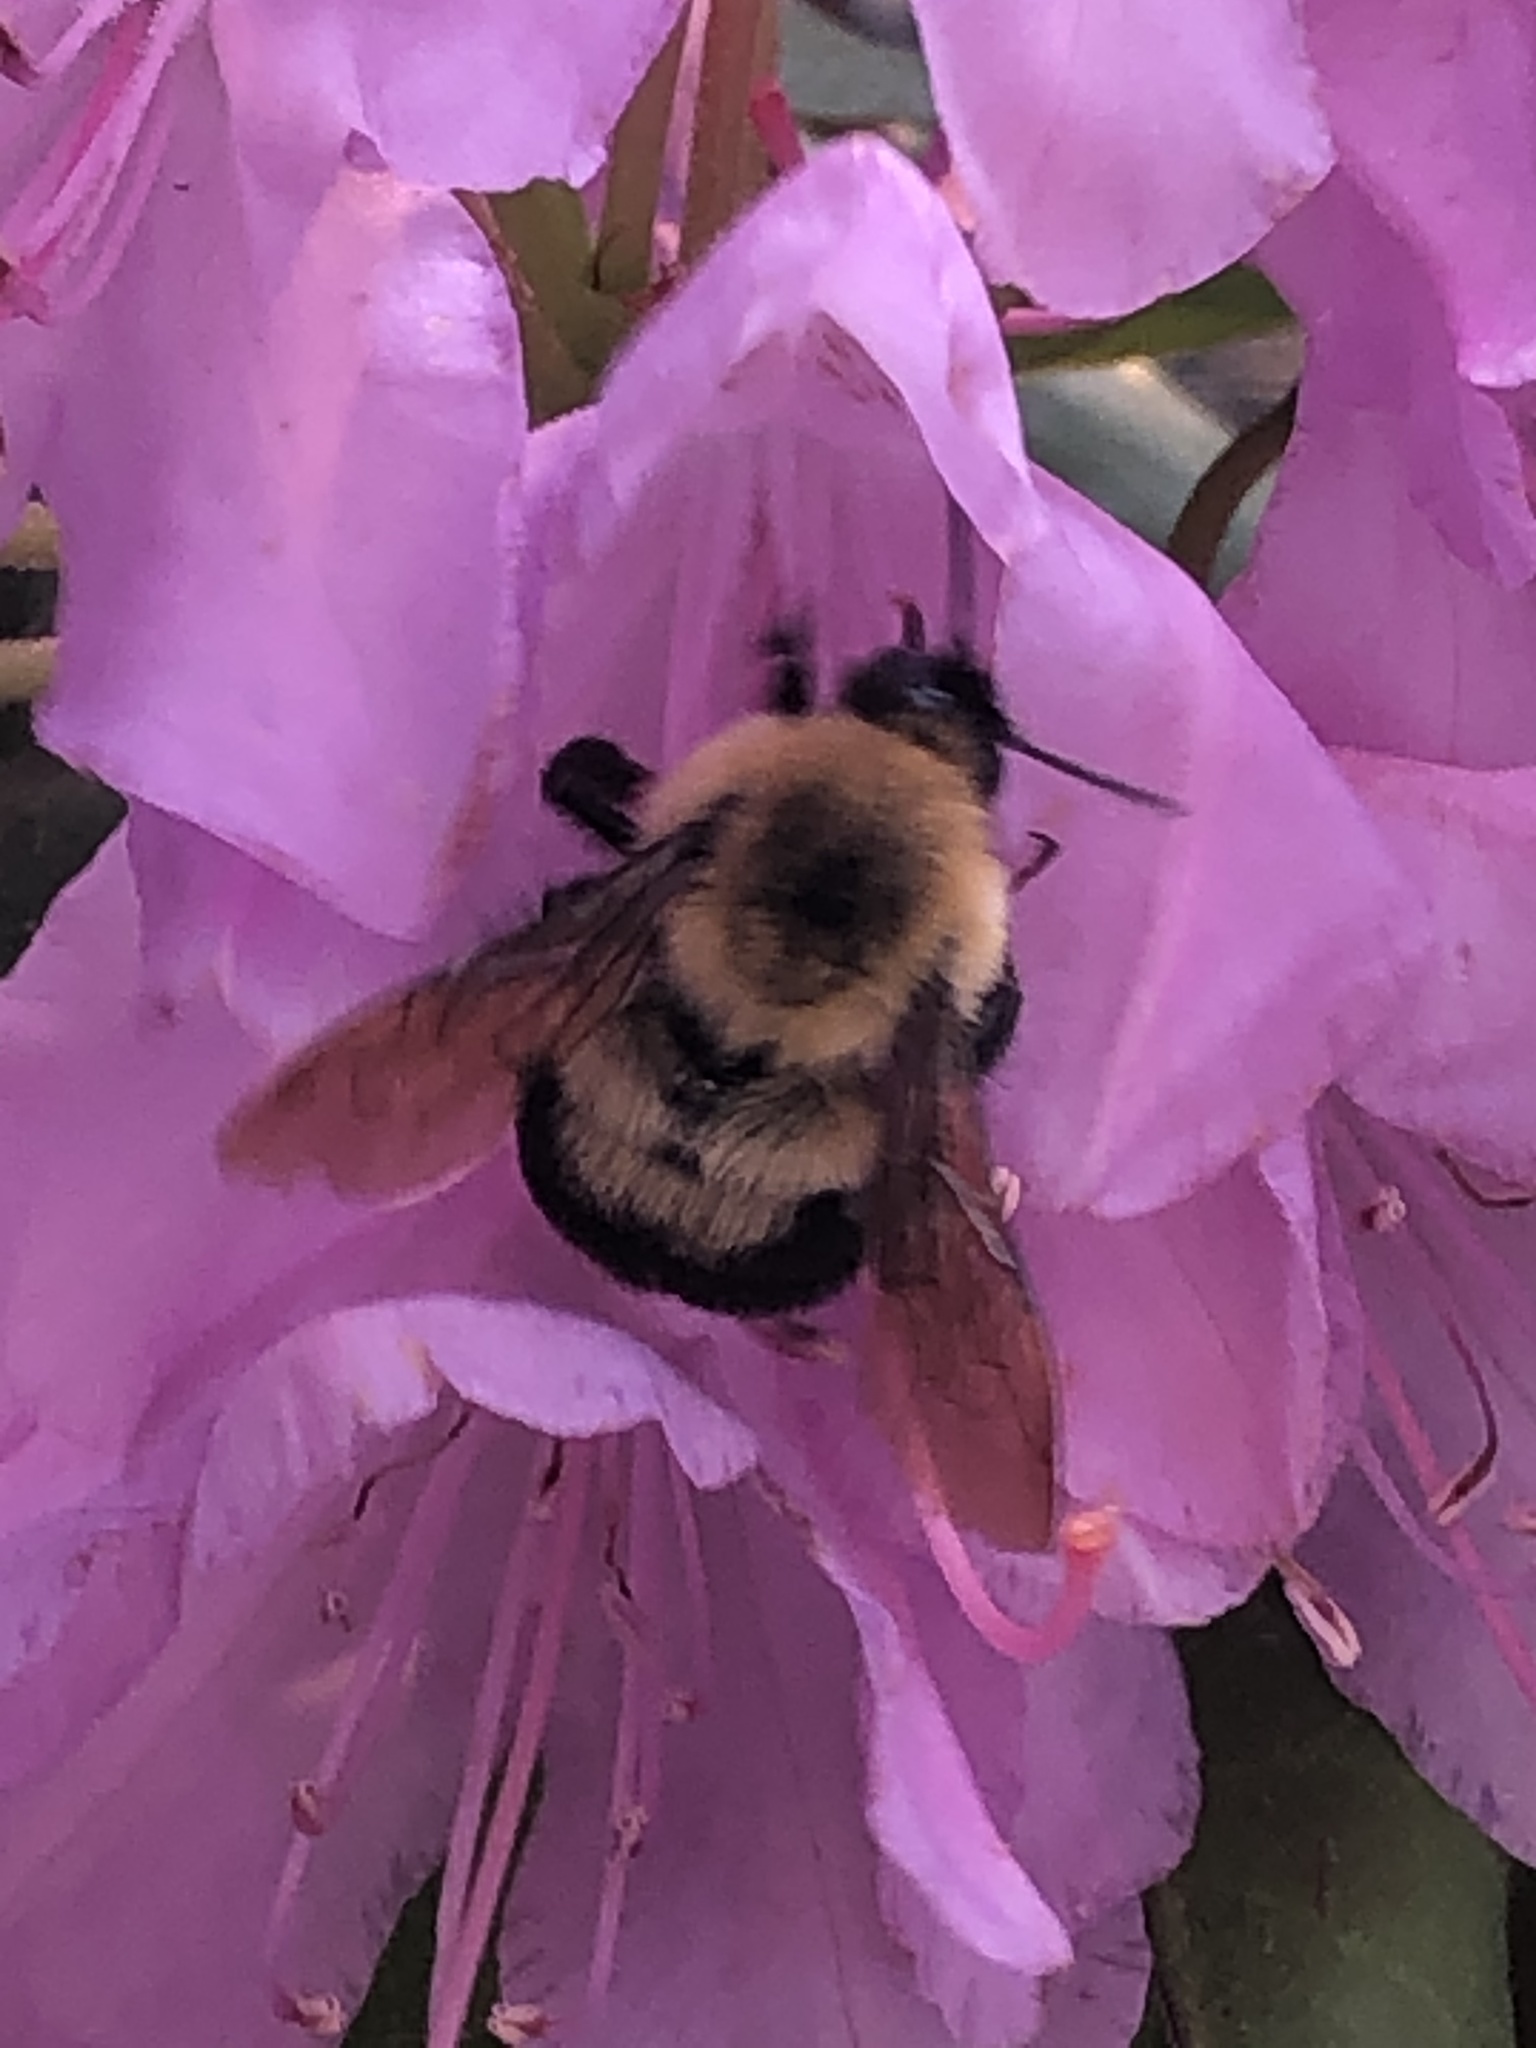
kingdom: Animalia
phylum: Arthropoda
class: Insecta
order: Hymenoptera
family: Apidae
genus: Bombus
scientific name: Bombus bimaculatus
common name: Two-spotted bumble bee
